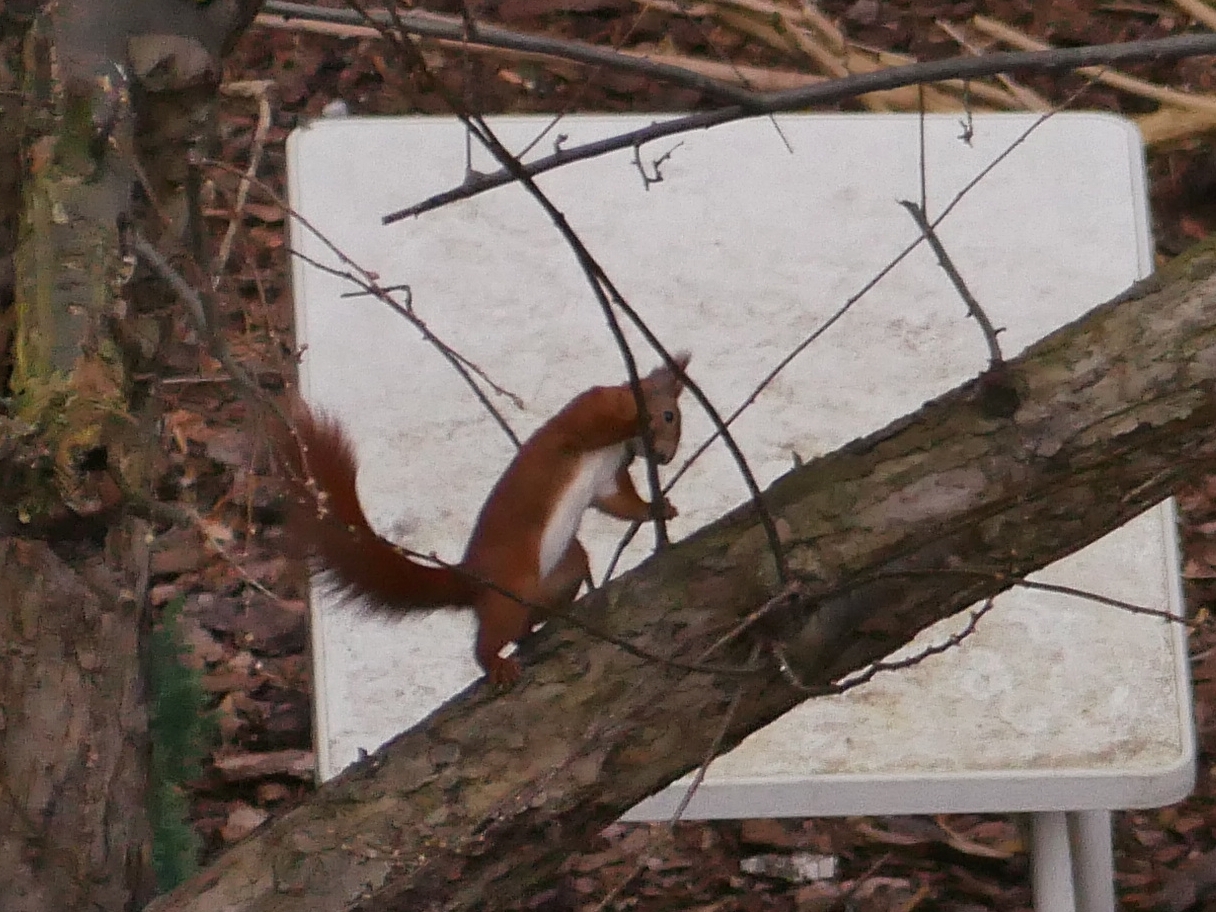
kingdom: Animalia
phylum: Chordata
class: Mammalia
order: Rodentia
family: Sciuridae
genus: Sciurus
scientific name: Sciurus vulgaris
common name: Eurasian red squirrel
